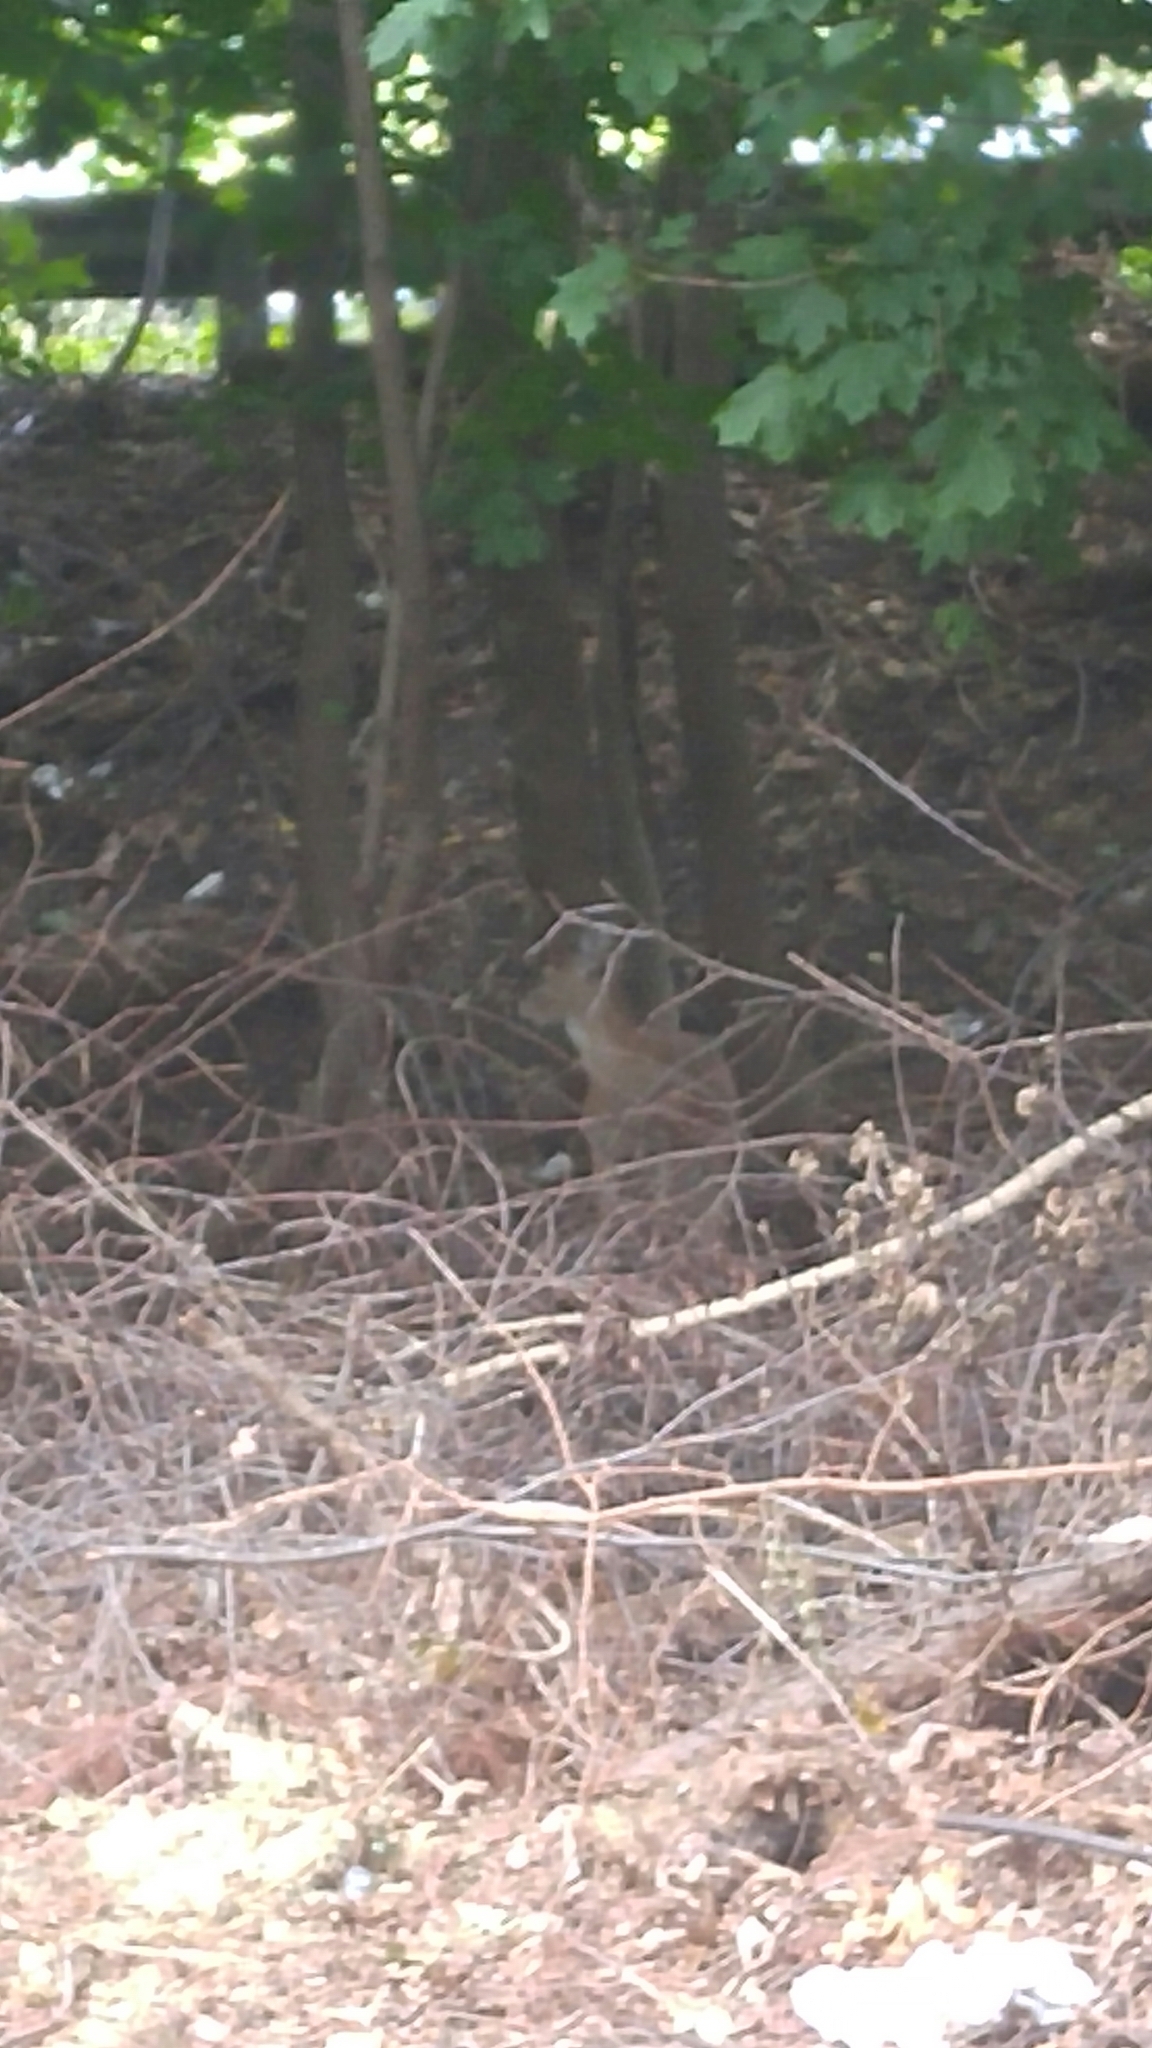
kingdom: Animalia
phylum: Chordata
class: Mammalia
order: Artiodactyla
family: Cervidae
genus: Odocoileus
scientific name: Odocoileus virginianus
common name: White-tailed deer
